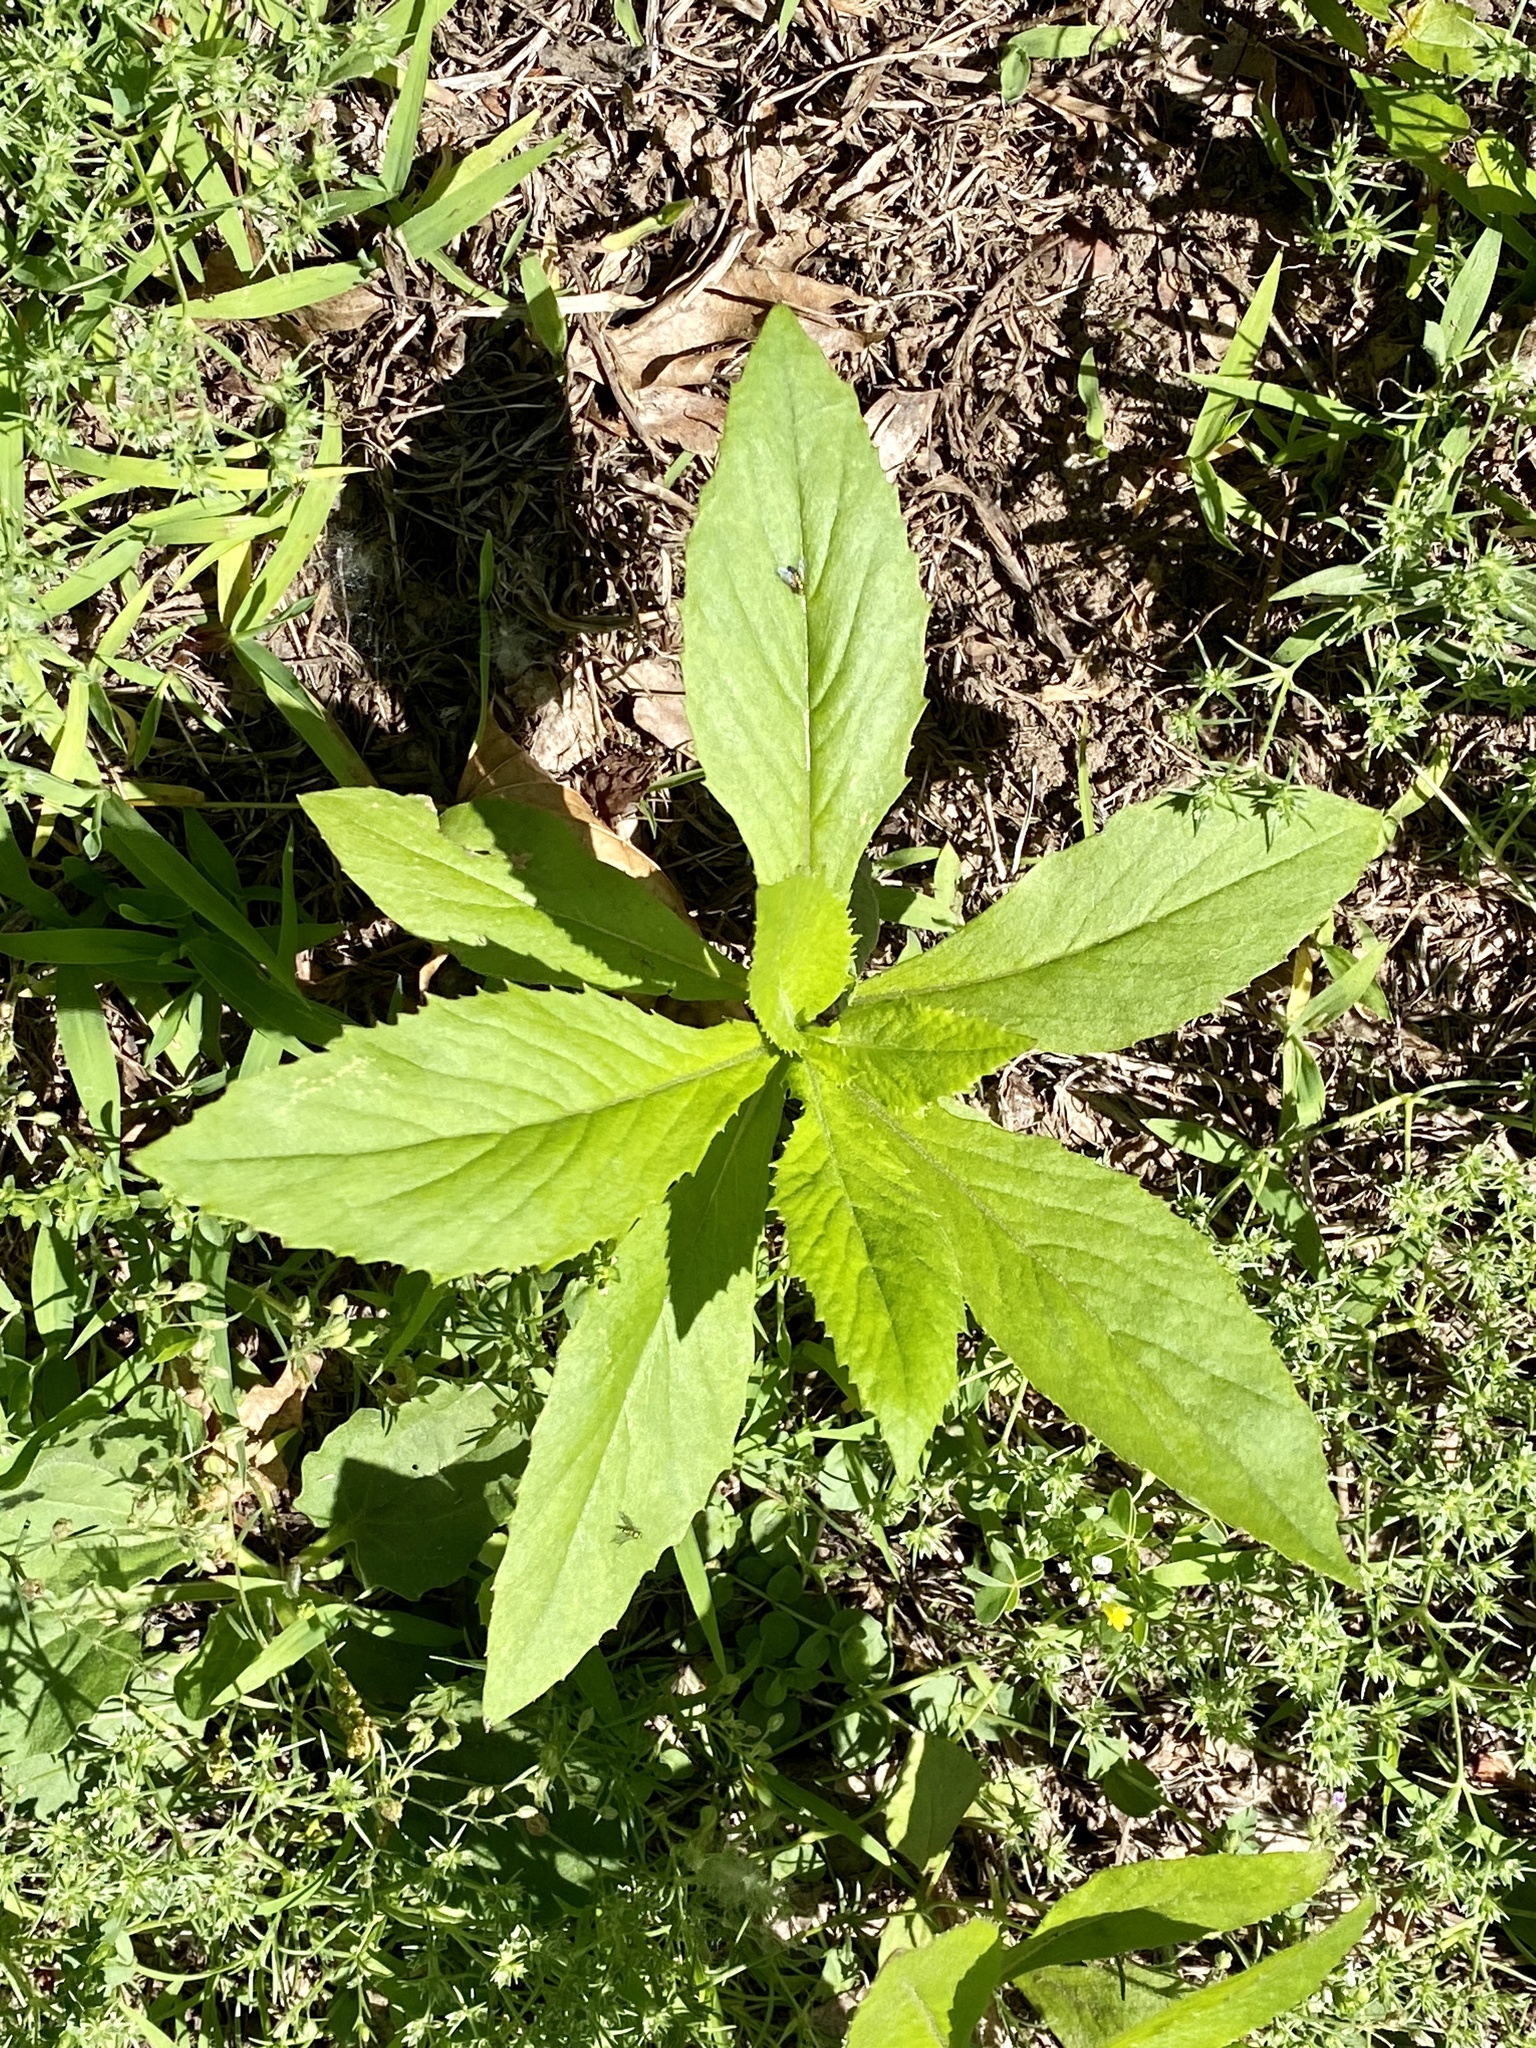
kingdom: Plantae
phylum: Tracheophyta
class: Magnoliopsida
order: Asterales
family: Asteraceae
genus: Erechtites
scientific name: Erechtites hieraciifolius
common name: American burnweed
